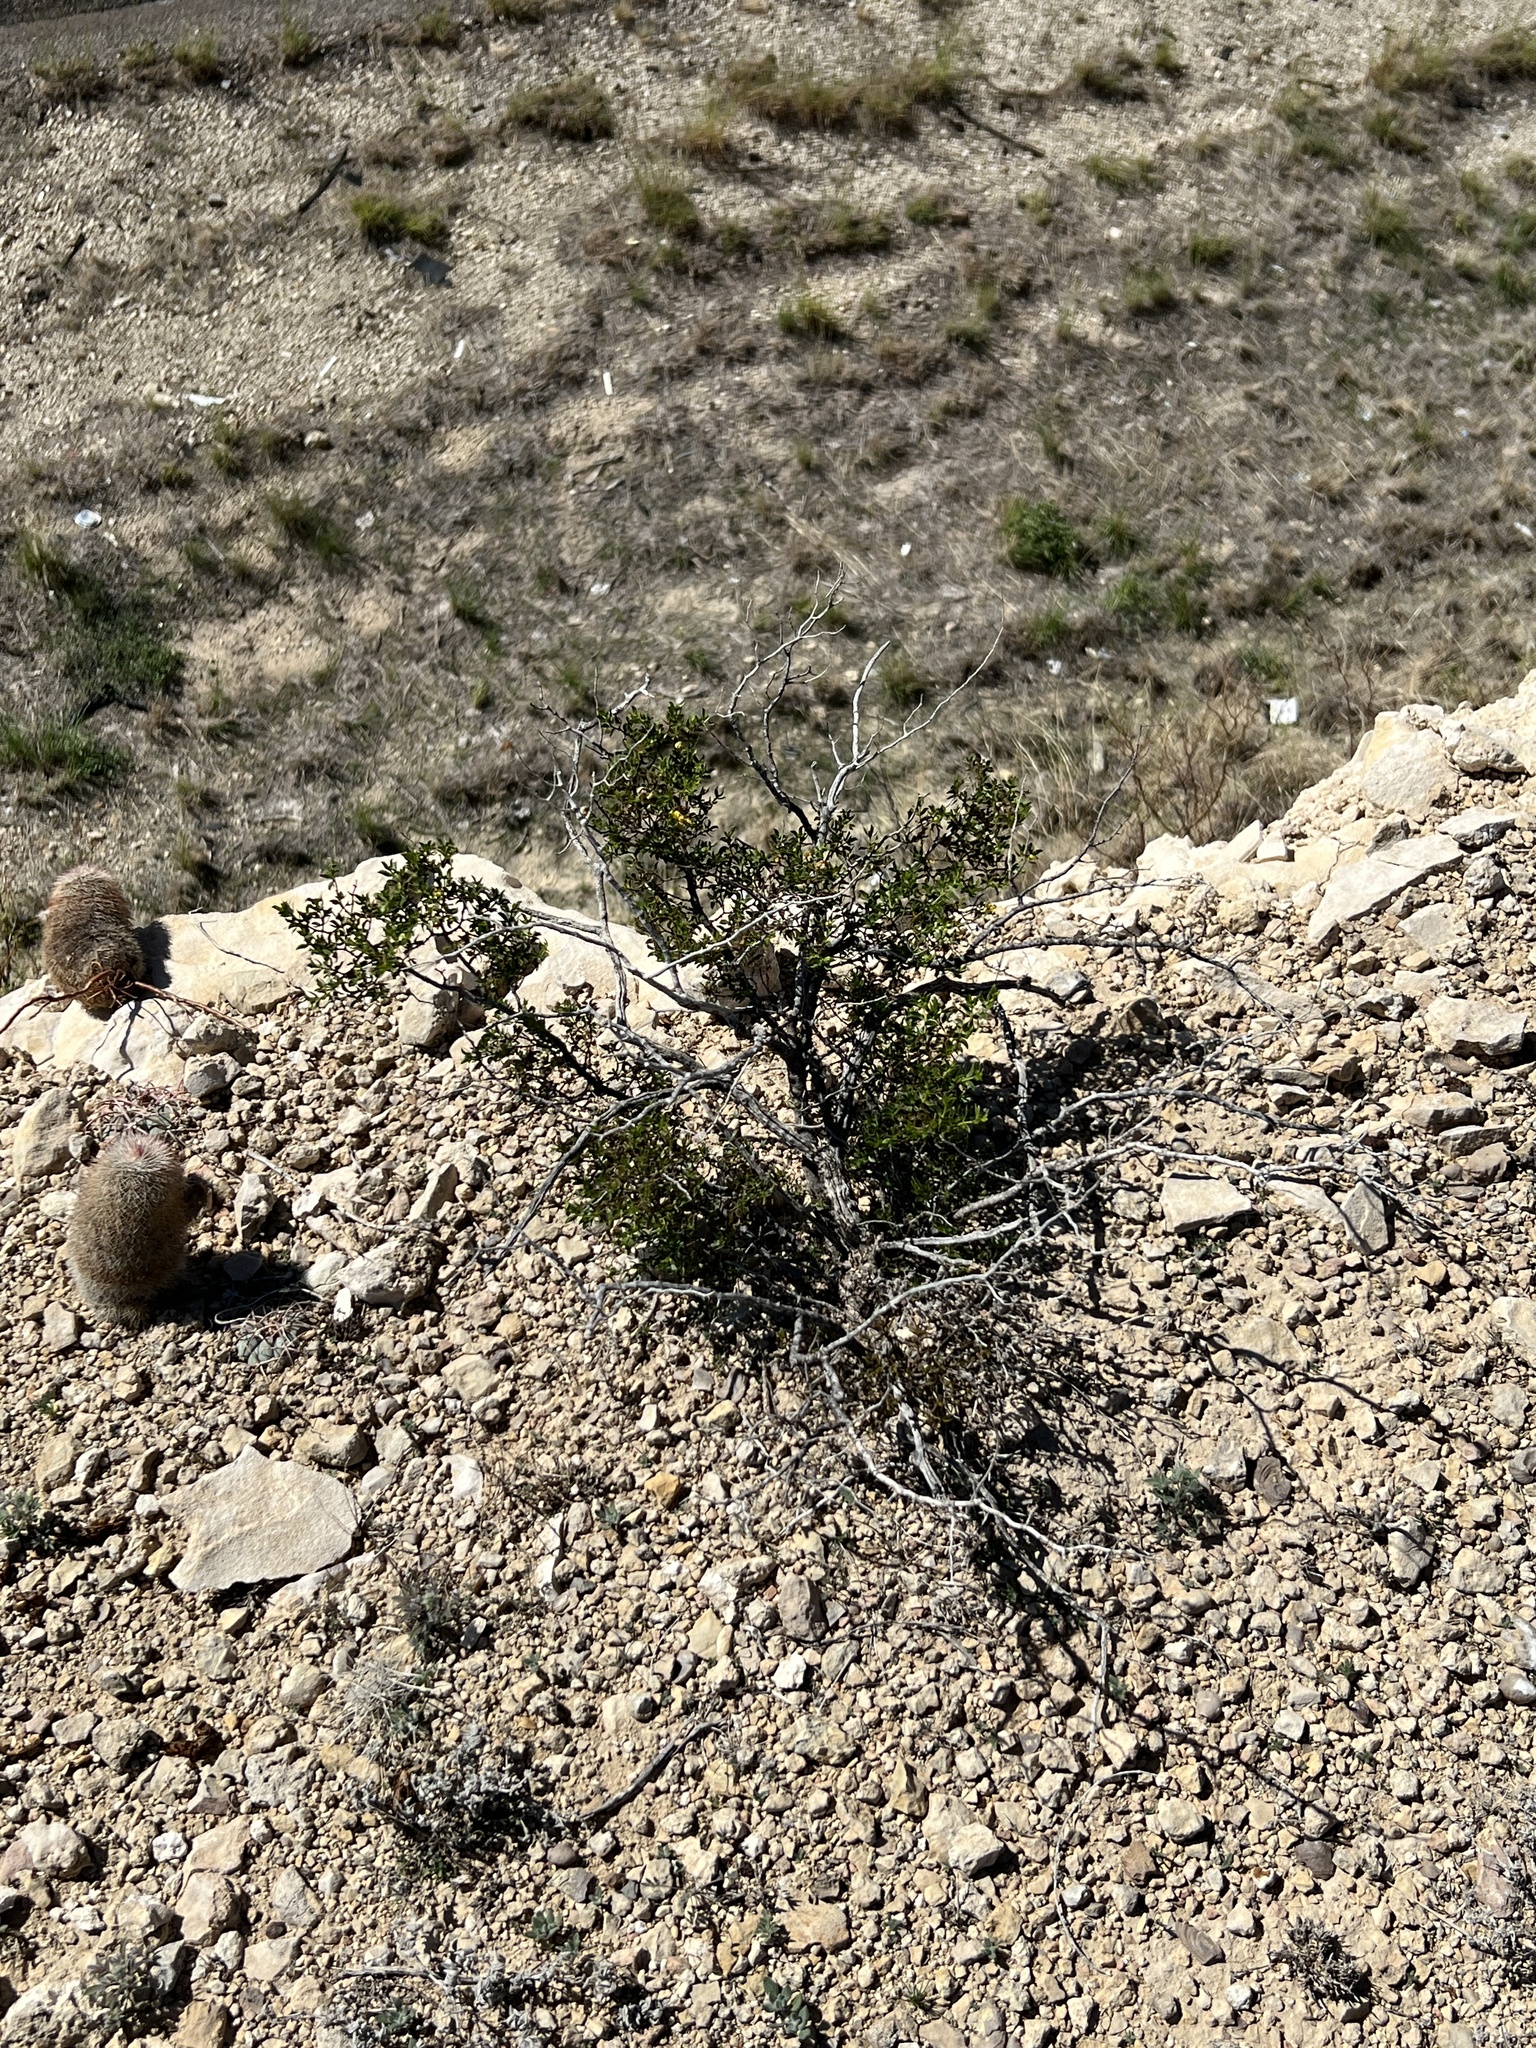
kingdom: Plantae
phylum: Tracheophyta
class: Magnoliopsida
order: Zygophyllales
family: Zygophyllaceae
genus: Larrea
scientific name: Larrea tridentata
